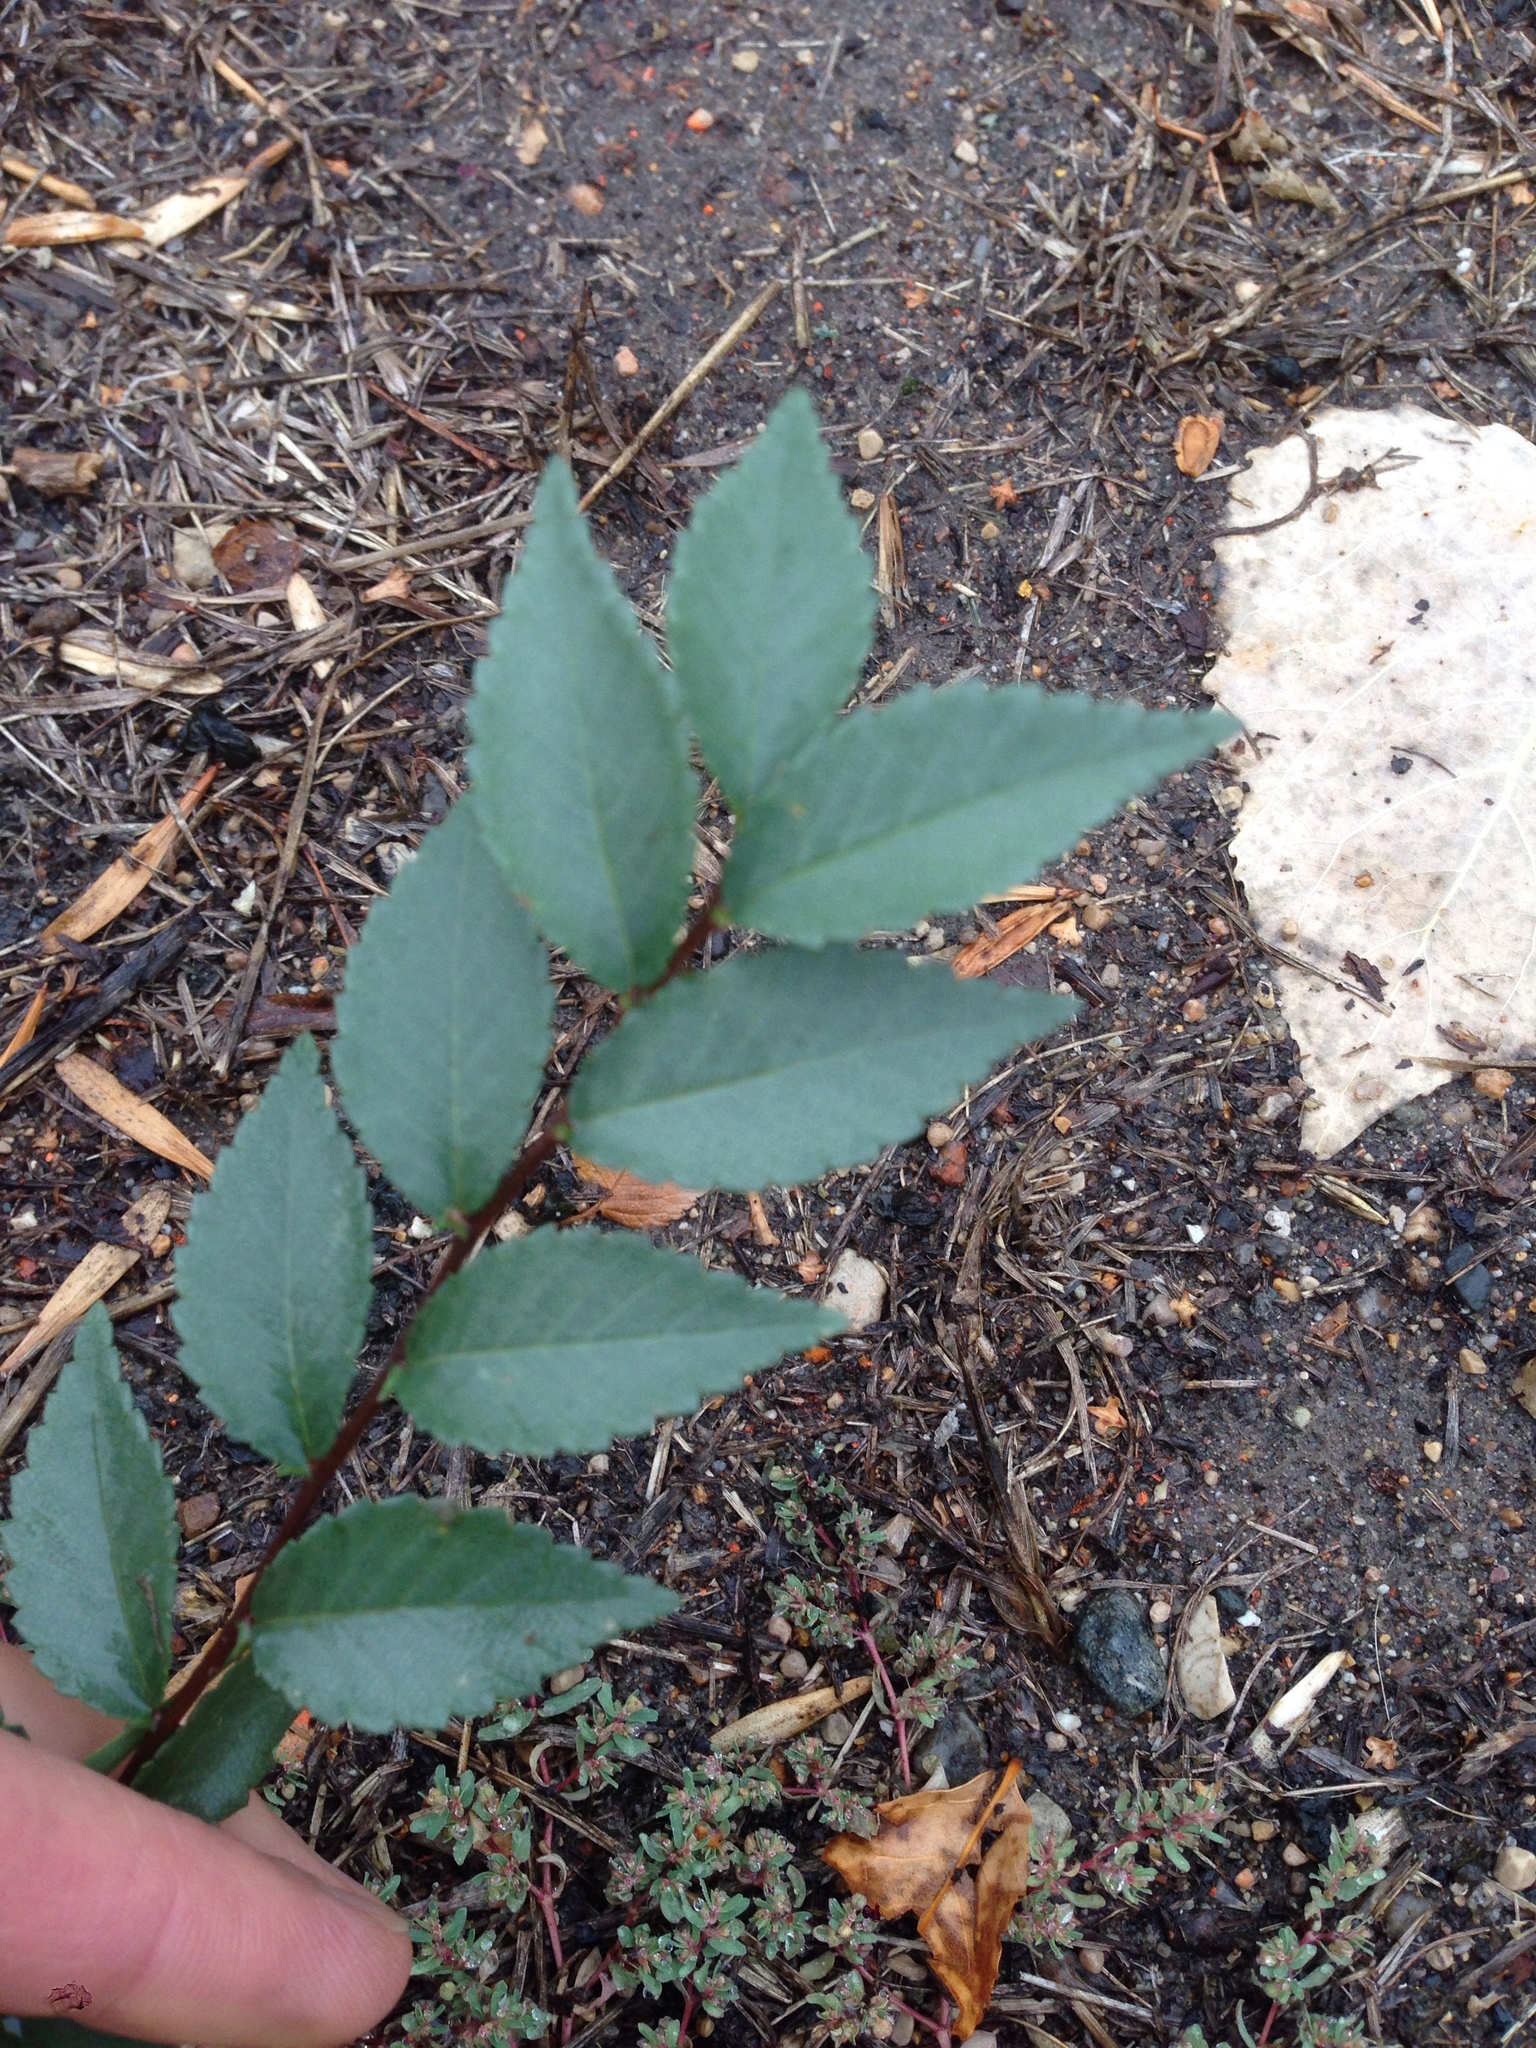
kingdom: Plantae
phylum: Tracheophyta
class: Magnoliopsida
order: Rosales
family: Ulmaceae
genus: Ulmus
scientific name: Ulmus pumila
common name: Siberian elm
